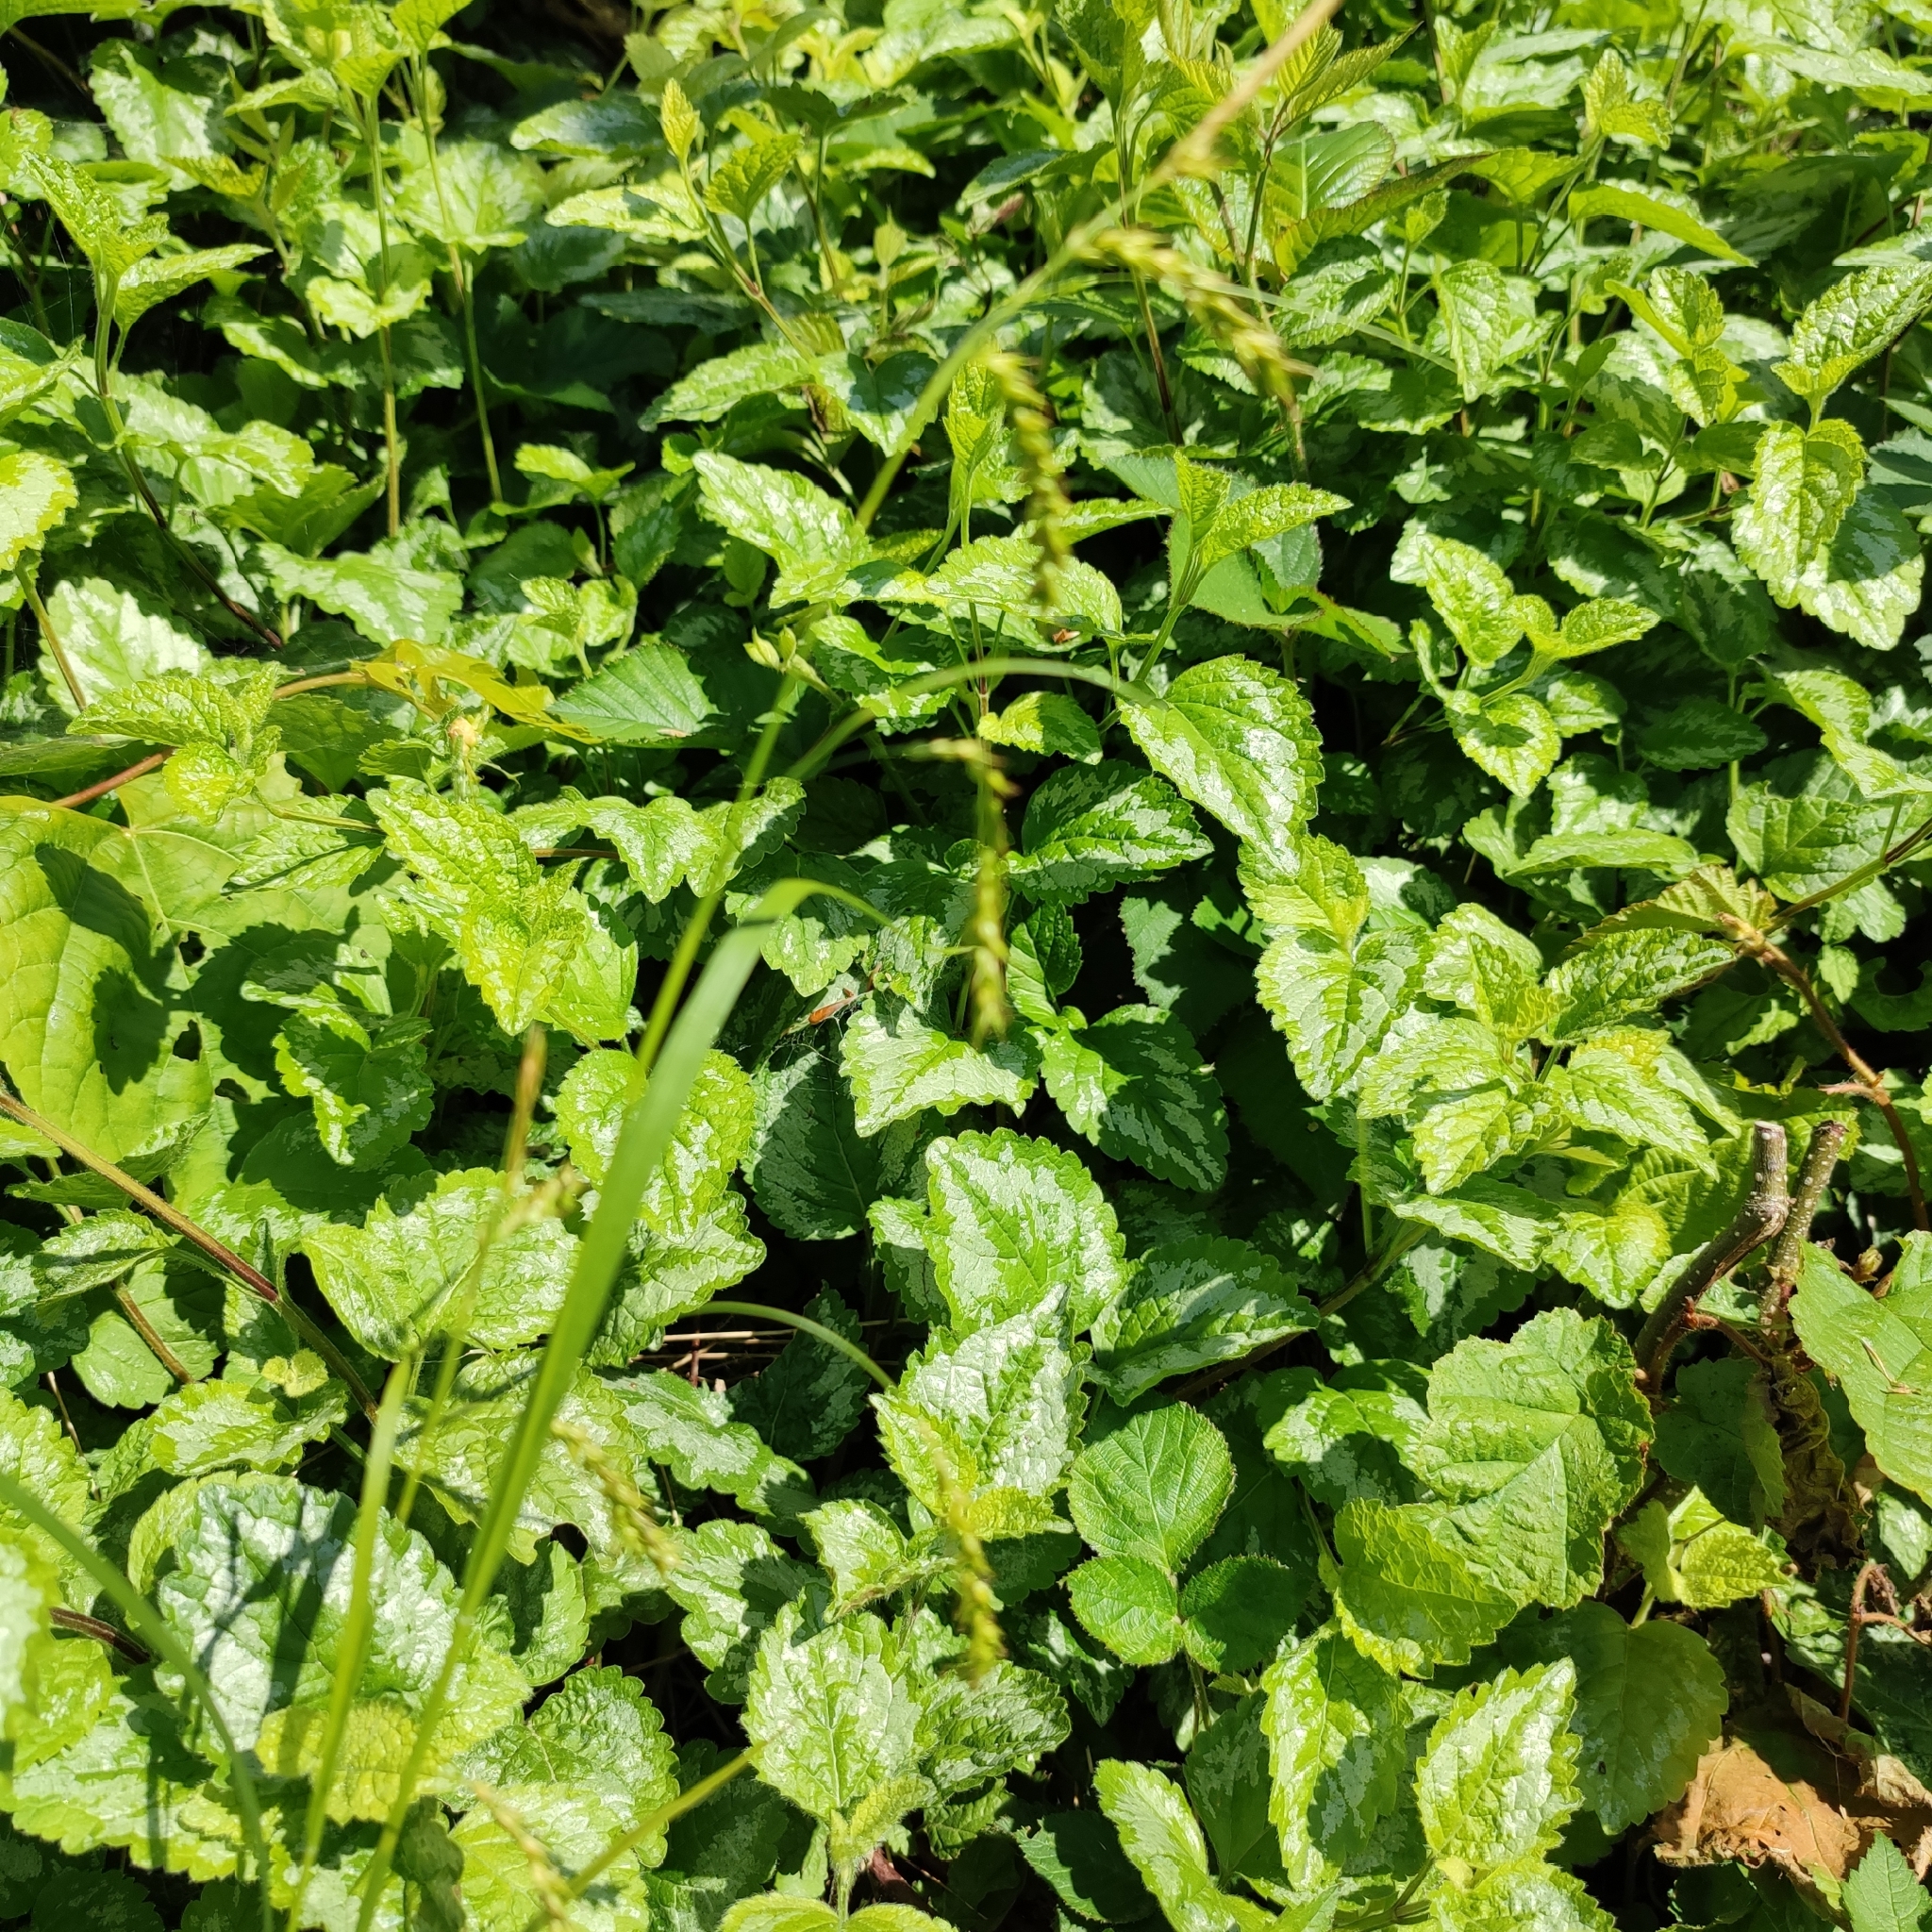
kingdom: Plantae
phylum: Tracheophyta
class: Liliopsida
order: Poales
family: Cyperaceae
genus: Carex
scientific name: Carex sylvatica
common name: Wood-sedge
